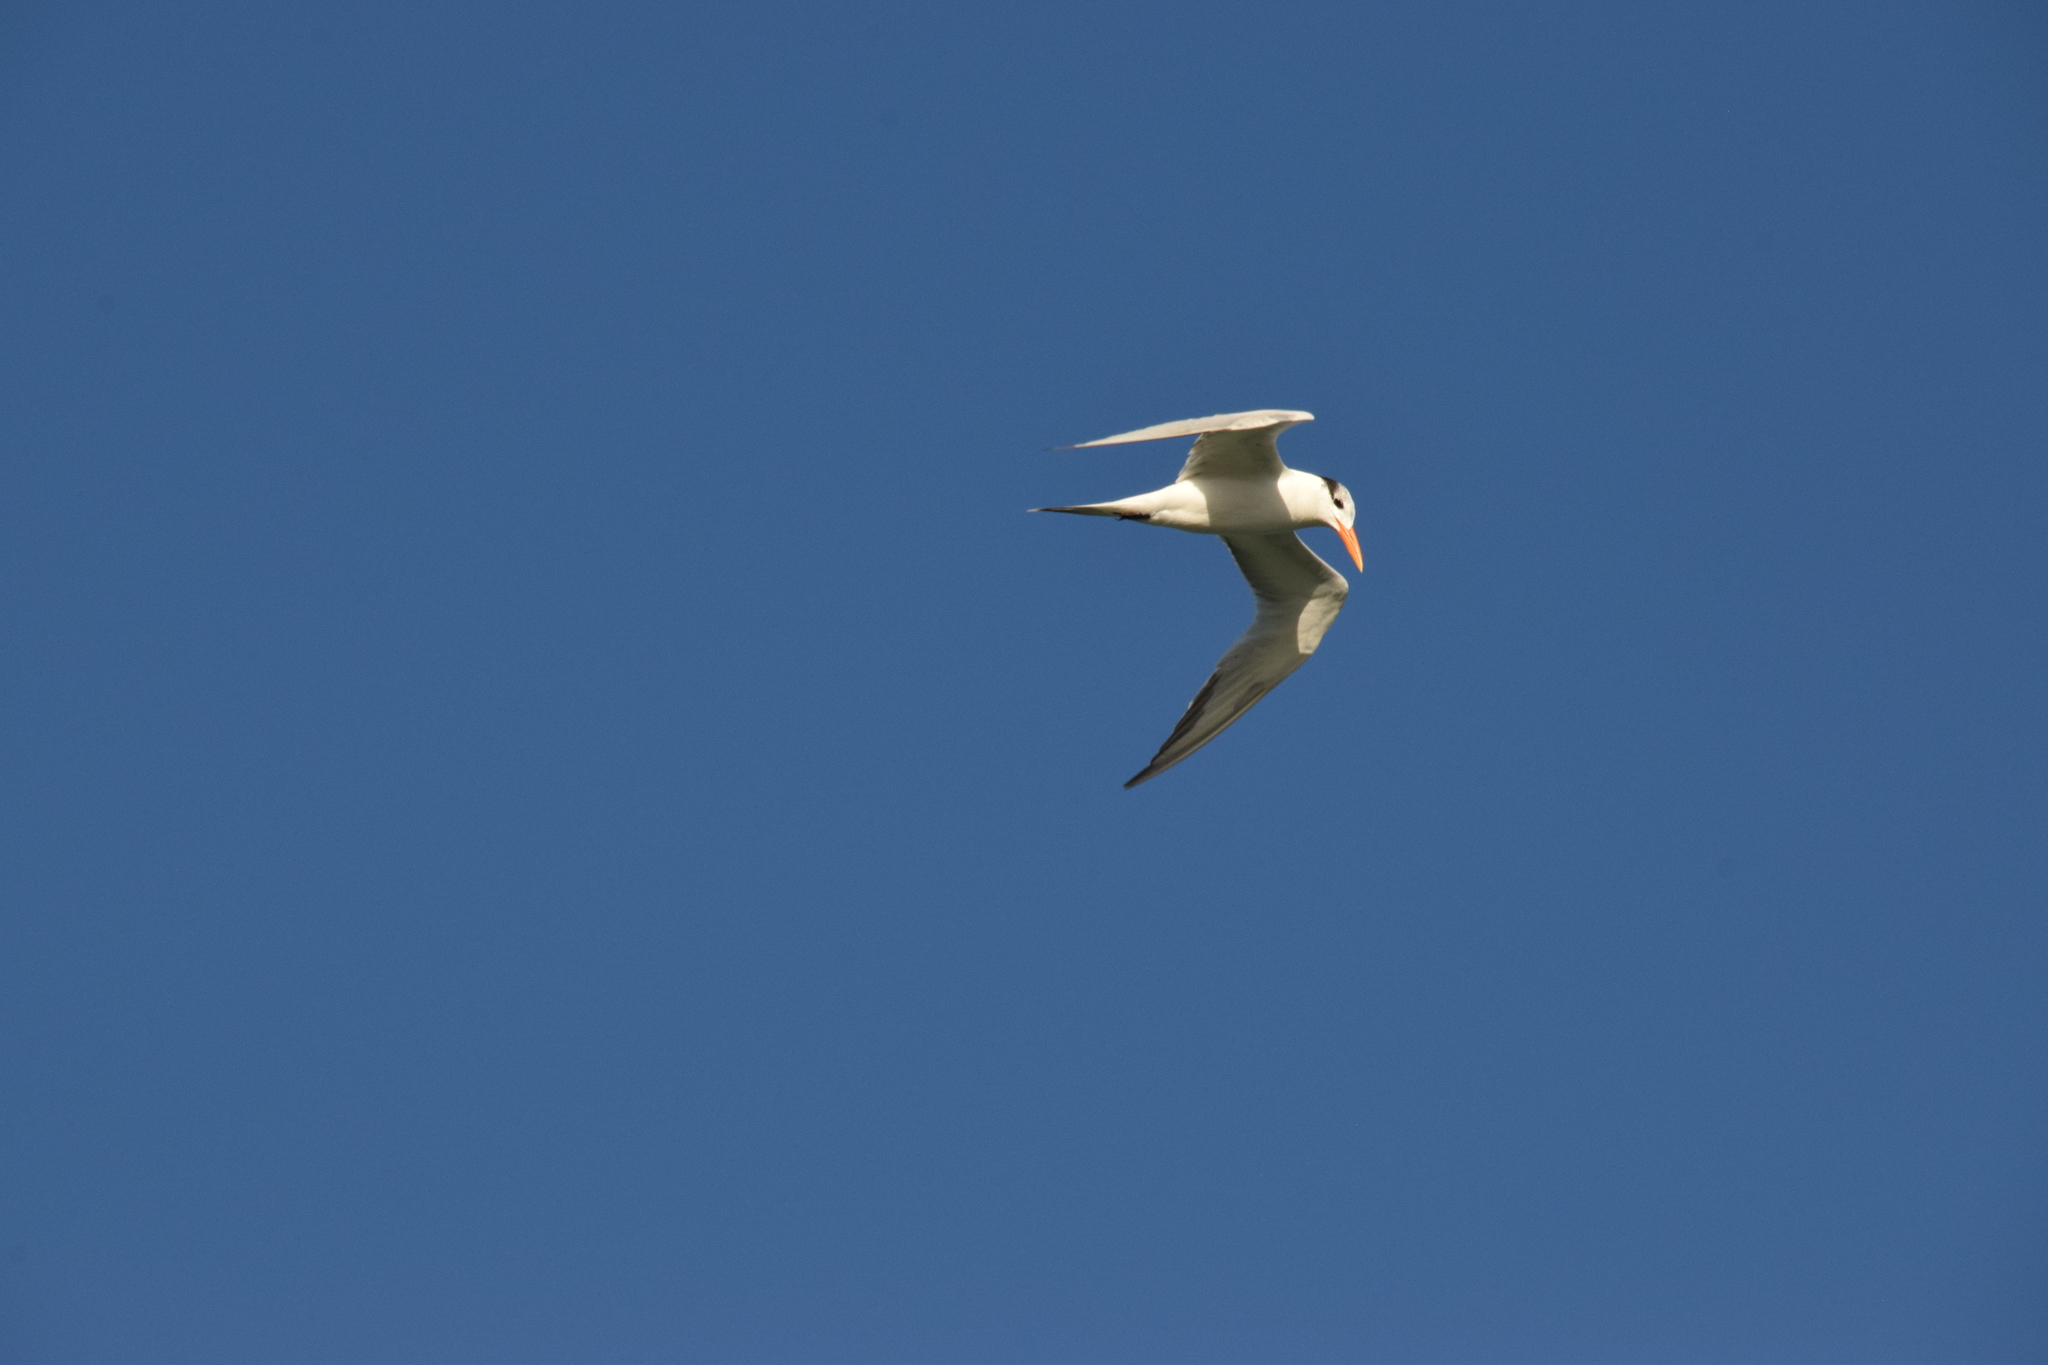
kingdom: Animalia
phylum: Chordata
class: Aves
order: Charadriiformes
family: Laridae
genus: Thalasseus
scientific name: Thalasseus maximus
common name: Royal tern
